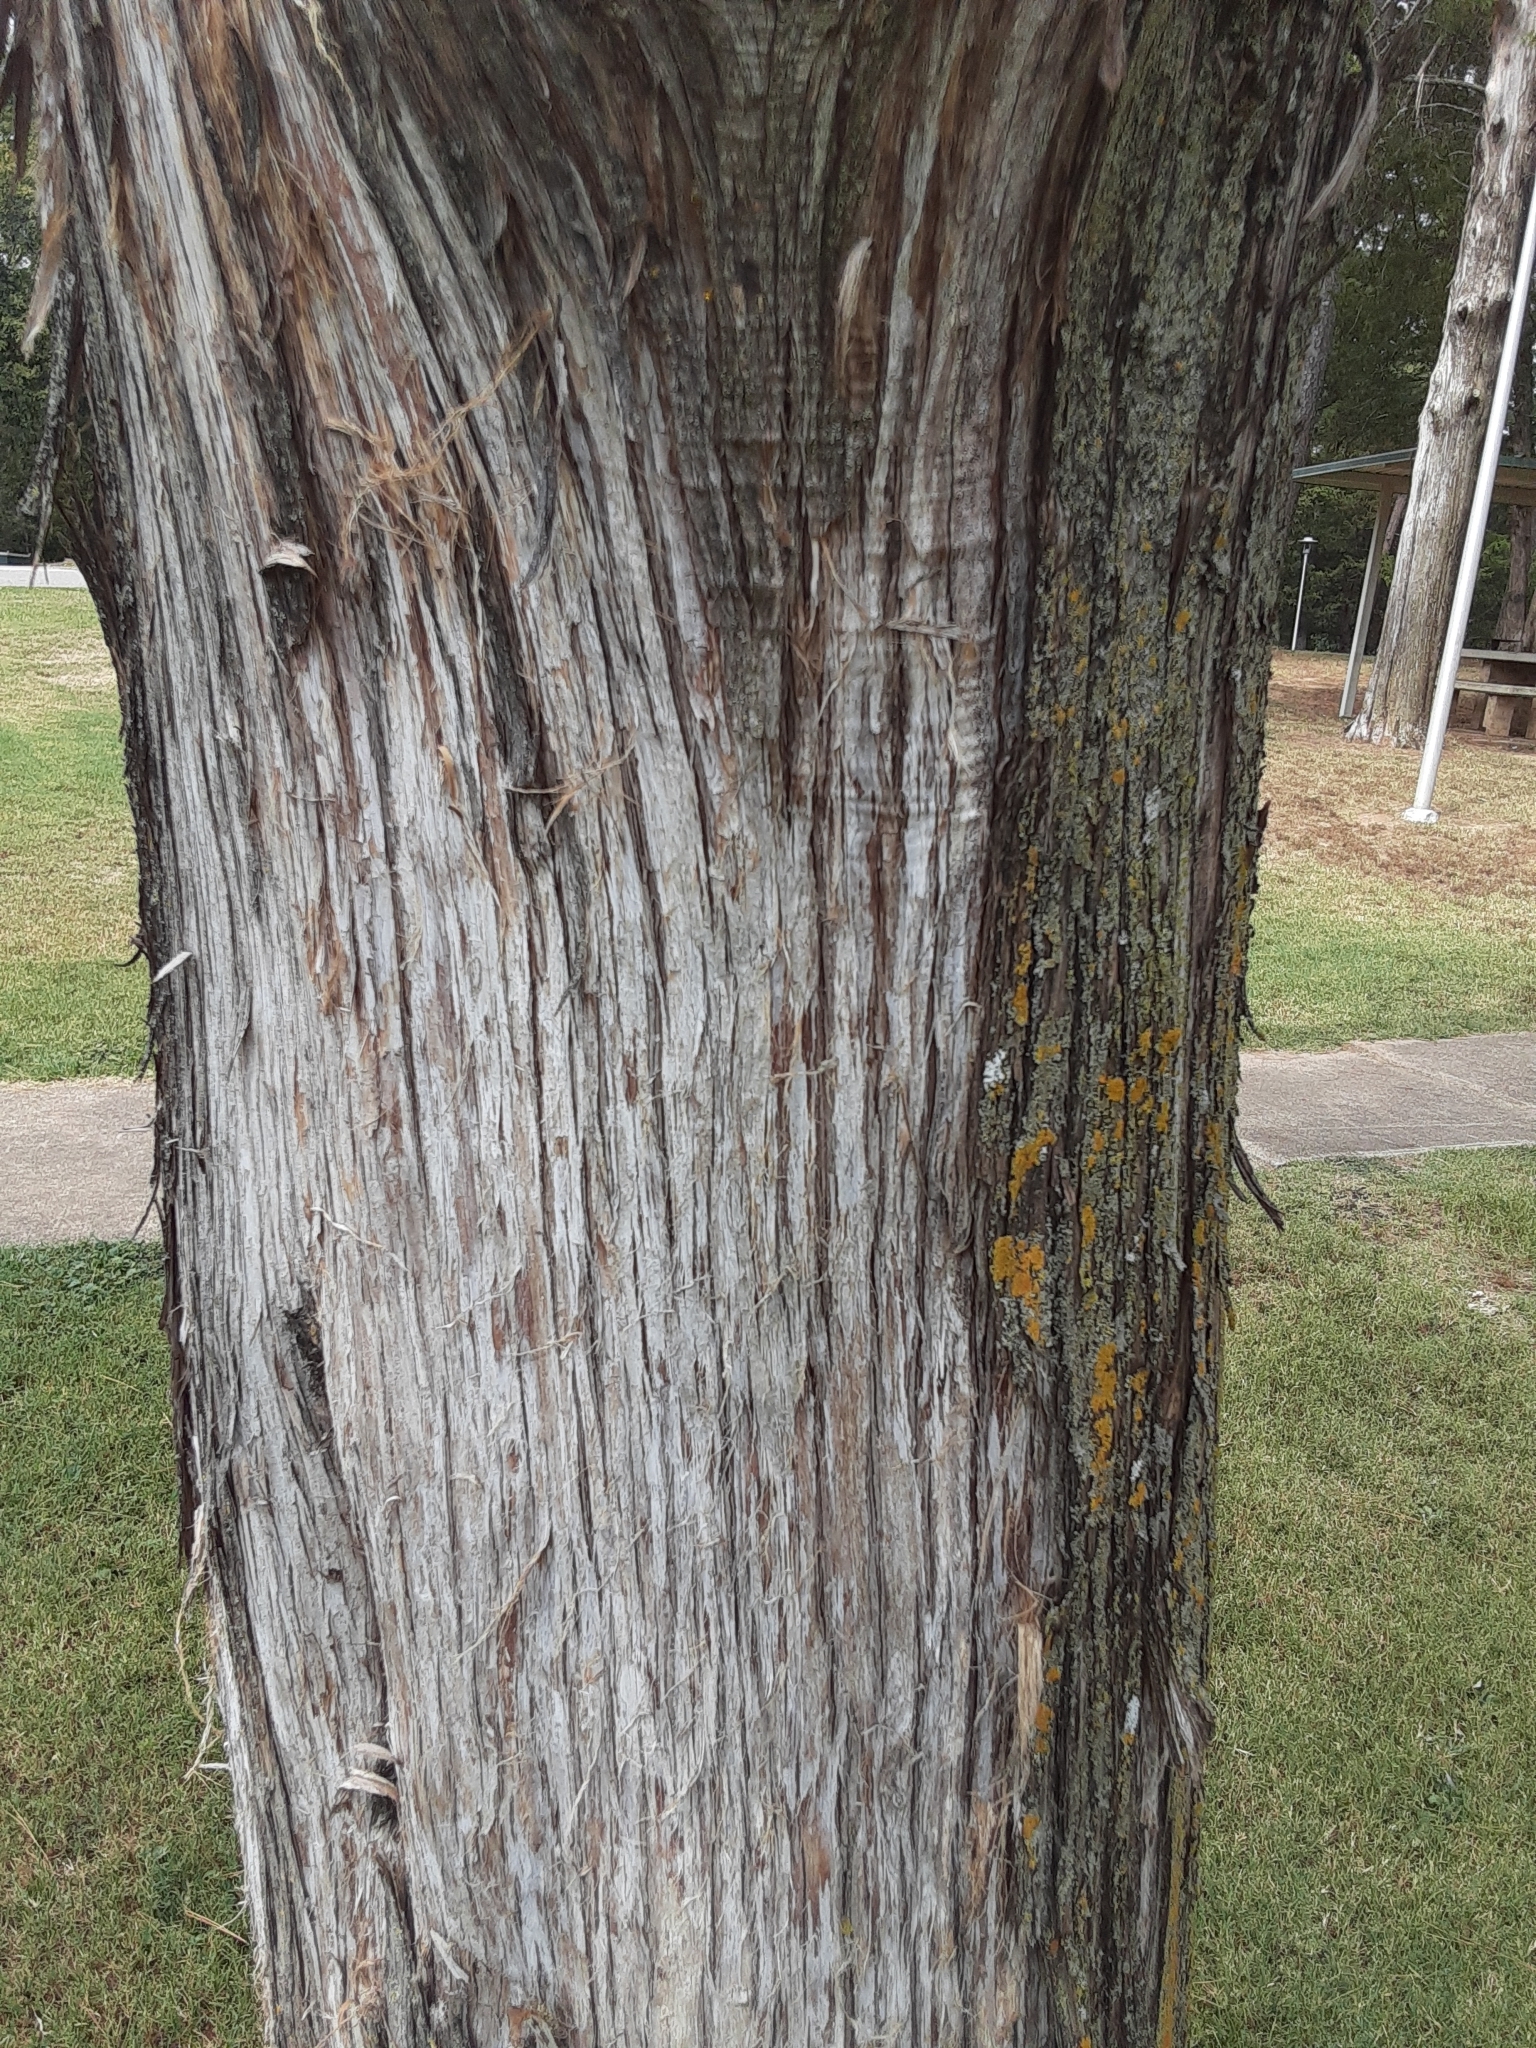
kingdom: Plantae
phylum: Tracheophyta
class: Pinopsida
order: Pinales
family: Cupressaceae
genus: Juniperus
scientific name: Juniperus virginiana
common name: Red juniper
